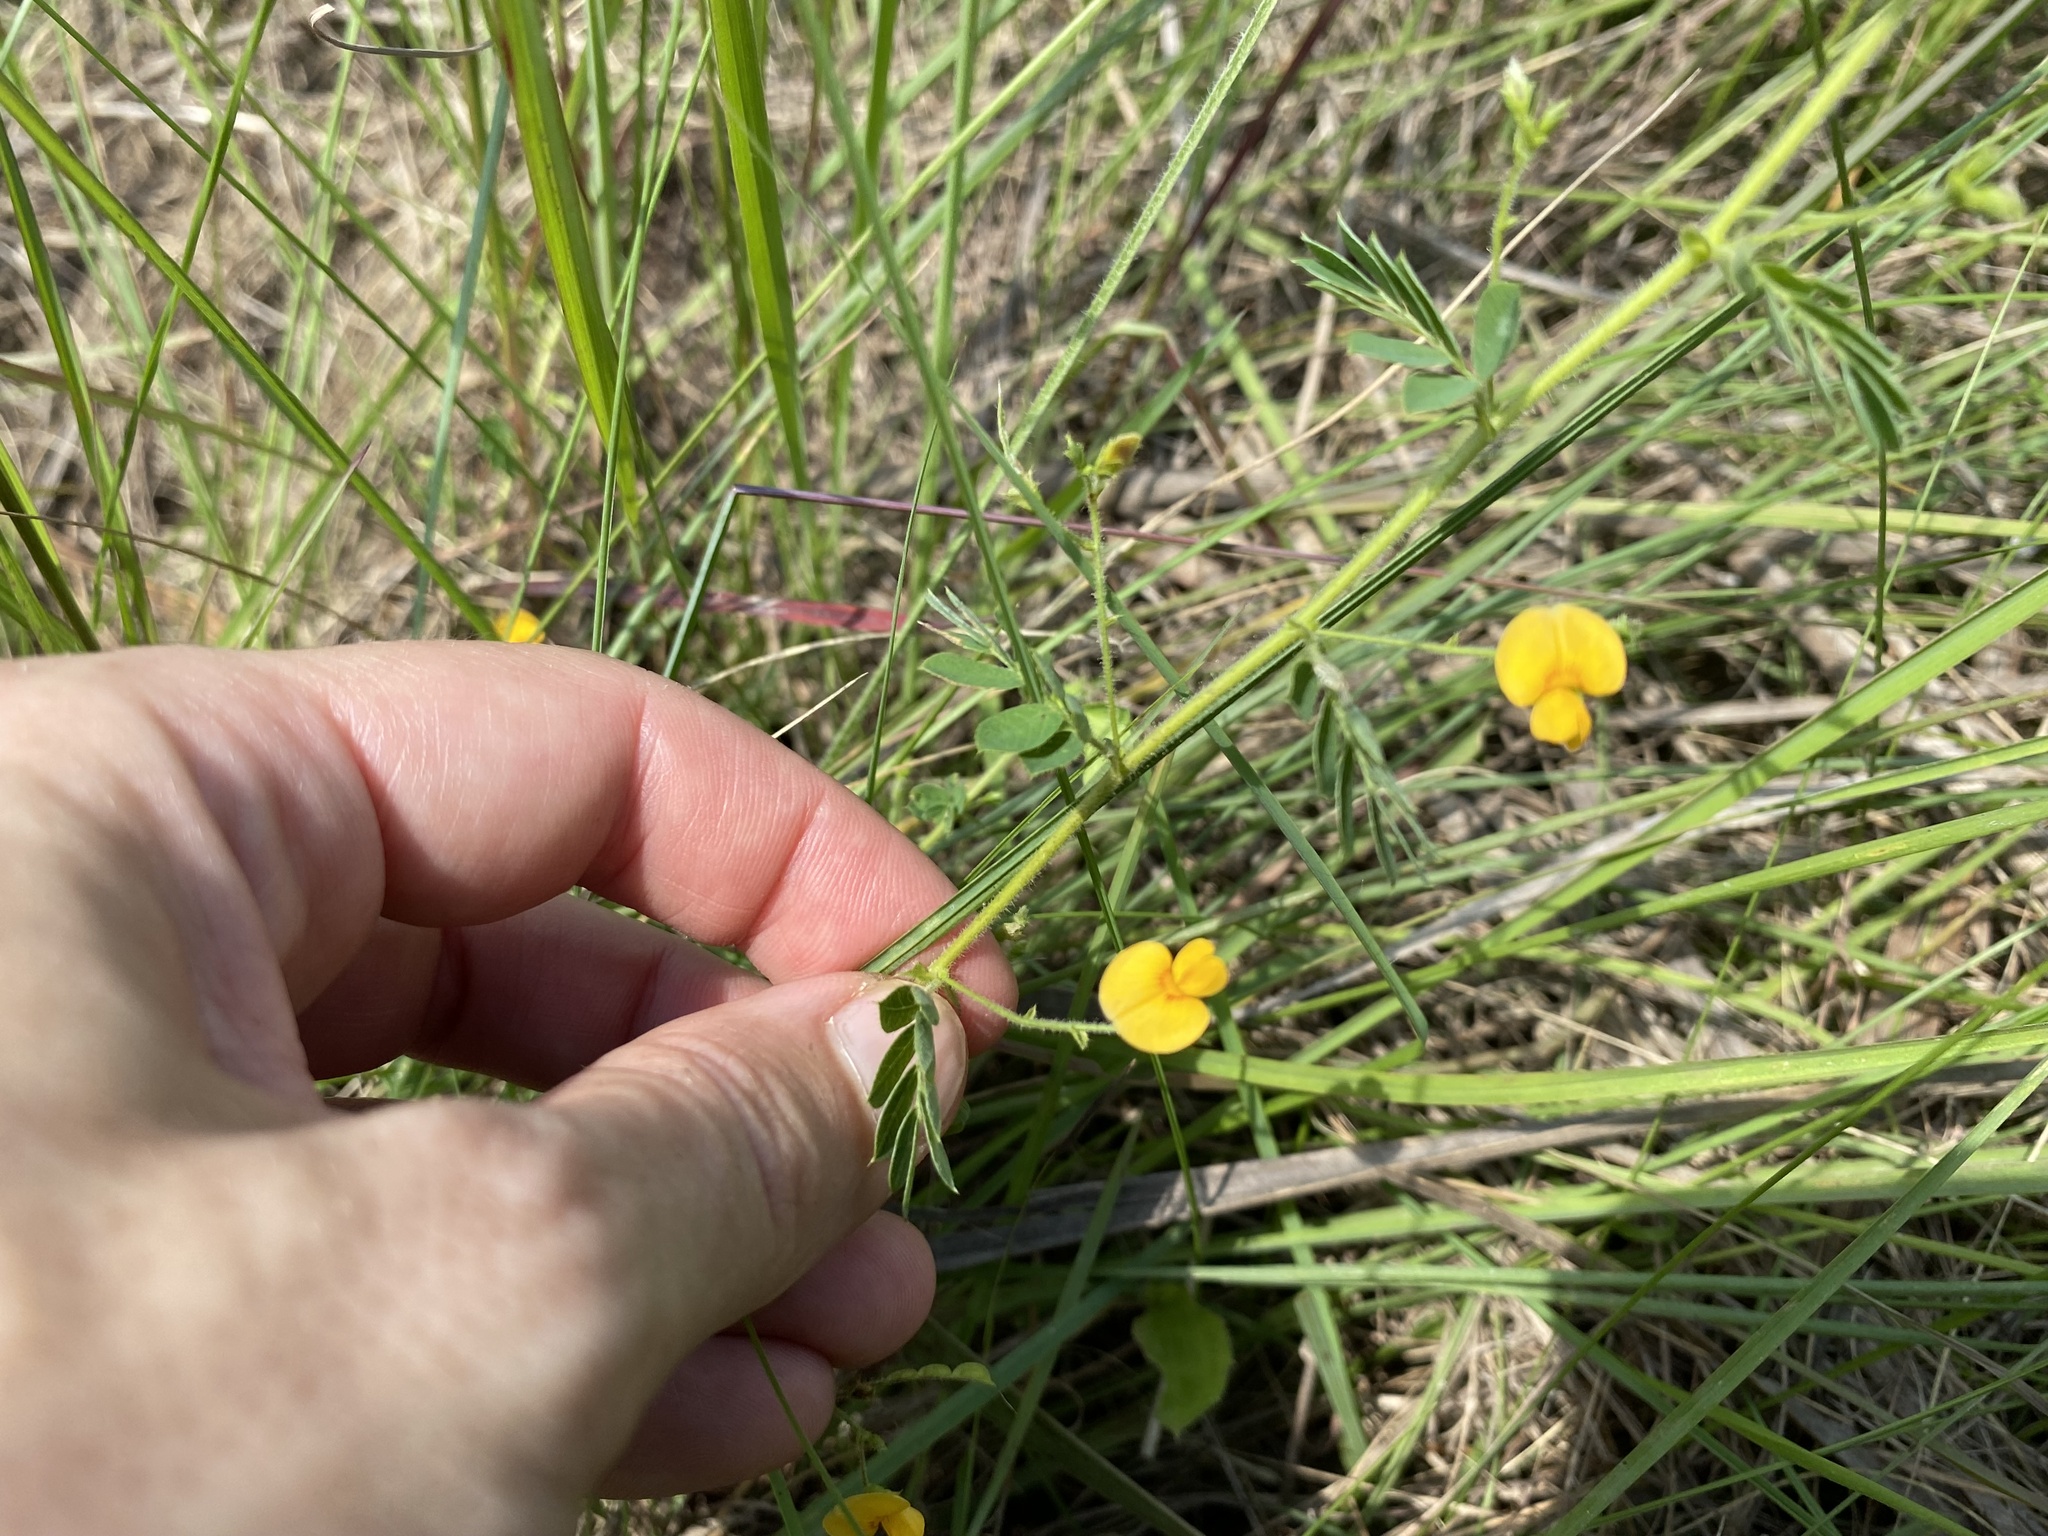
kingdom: Plantae
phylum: Tracheophyta
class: Magnoliopsida
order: Fabales
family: Fabaceae
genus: Aeschynomene
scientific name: Aeschynomene brevifolia
